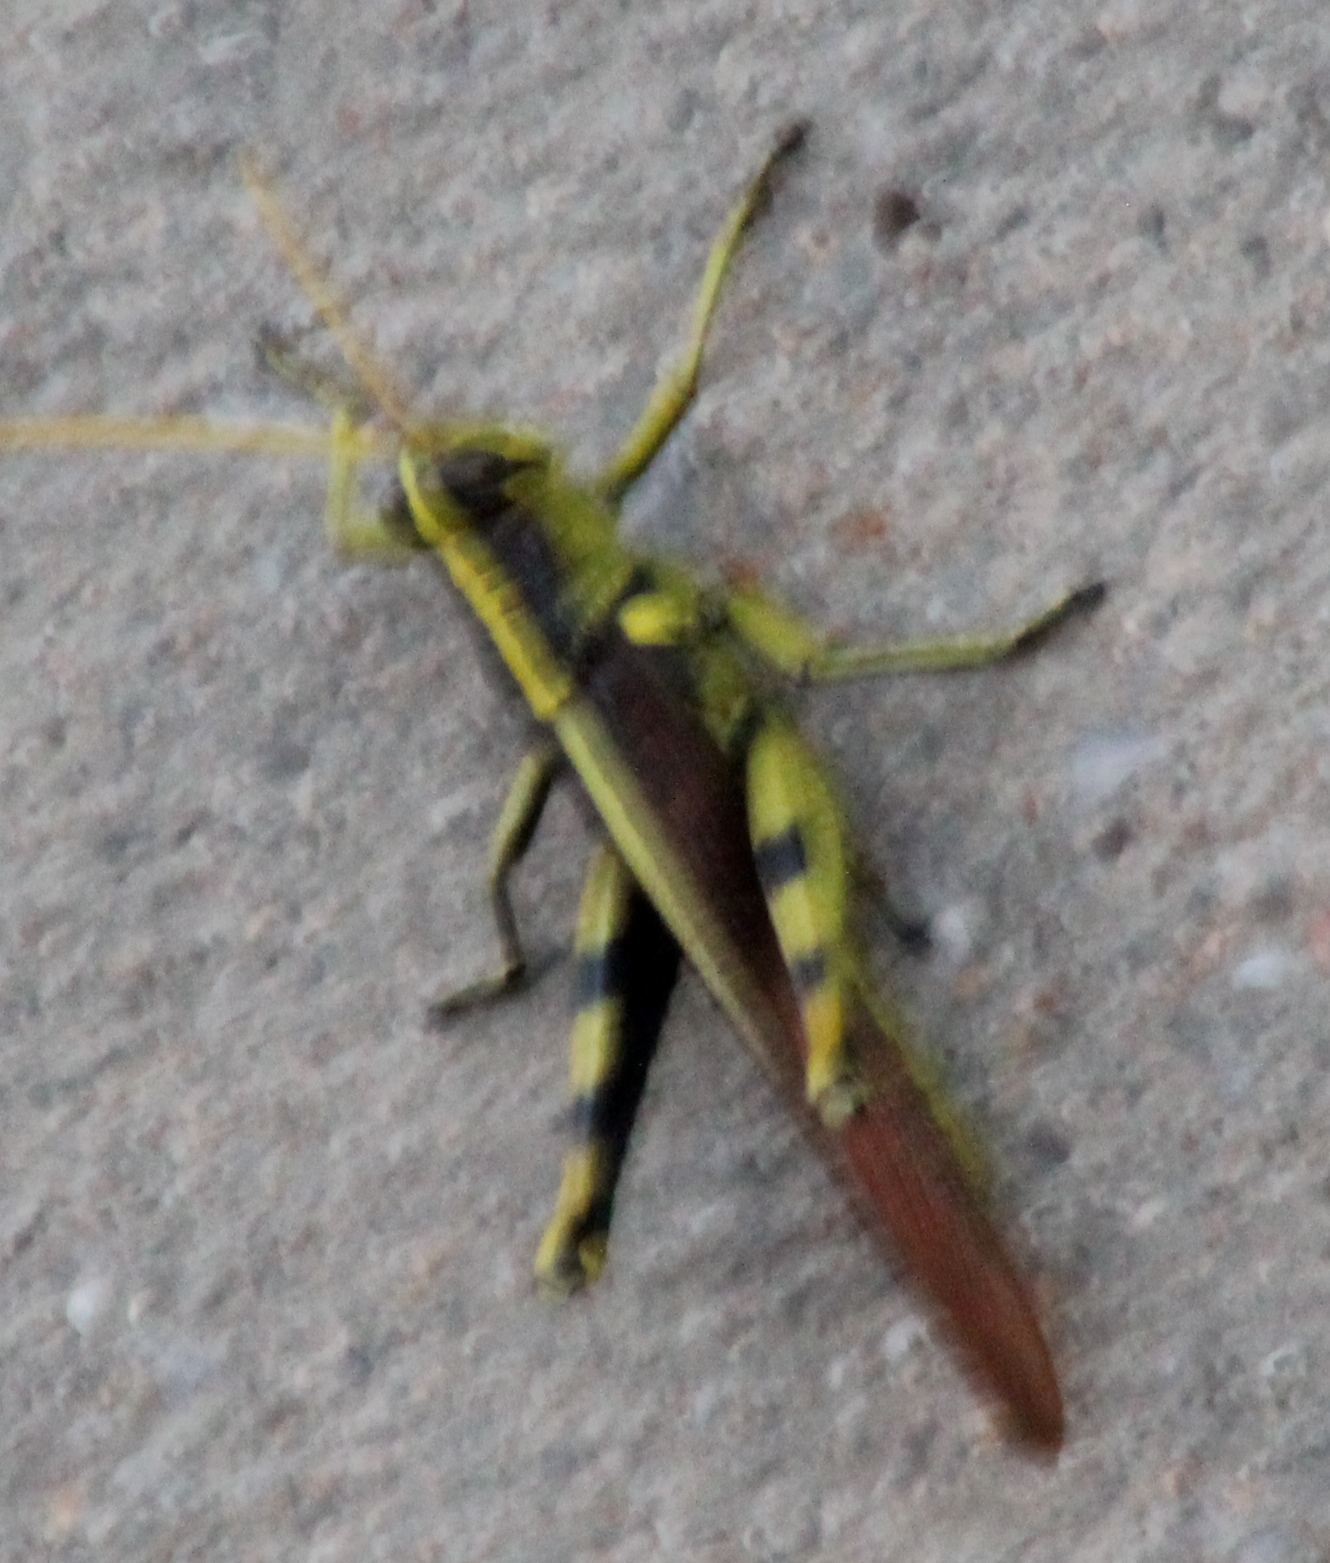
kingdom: Animalia
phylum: Arthropoda
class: Insecta
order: Orthoptera
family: Acrididae
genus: Schistocerca
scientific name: Schistocerca obscura
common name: Obscure bird grasshopper
